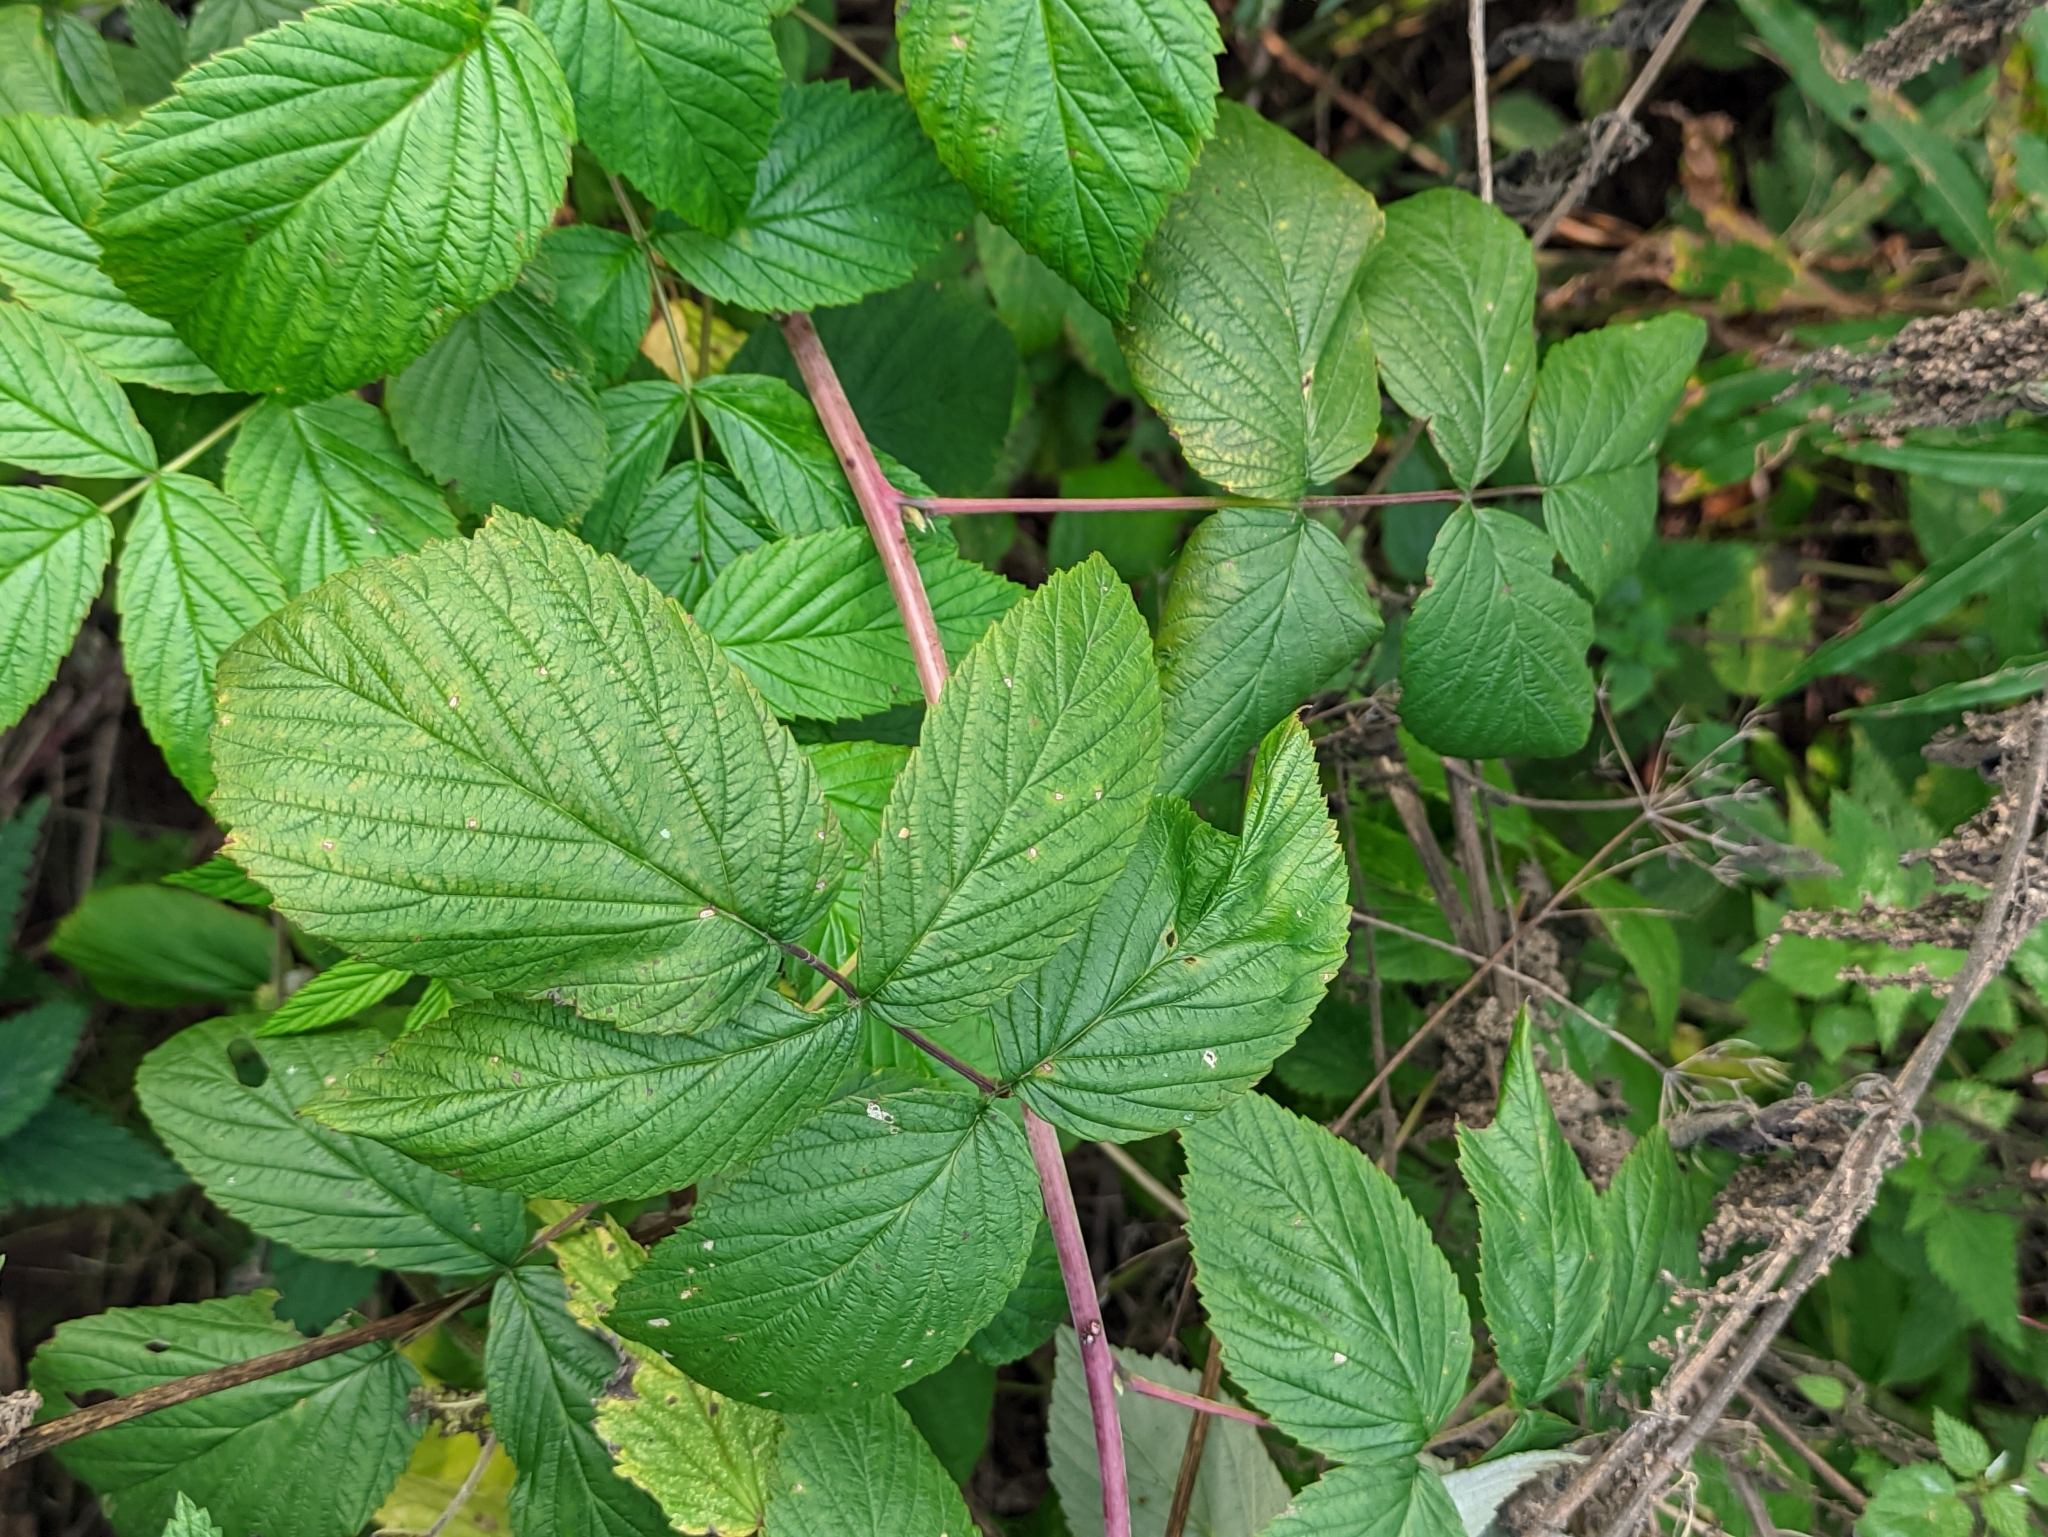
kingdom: Plantae
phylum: Tracheophyta
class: Magnoliopsida
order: Rosales
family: Rosaceae
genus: Rubus
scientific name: Rubus idaeus
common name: Raspberry
